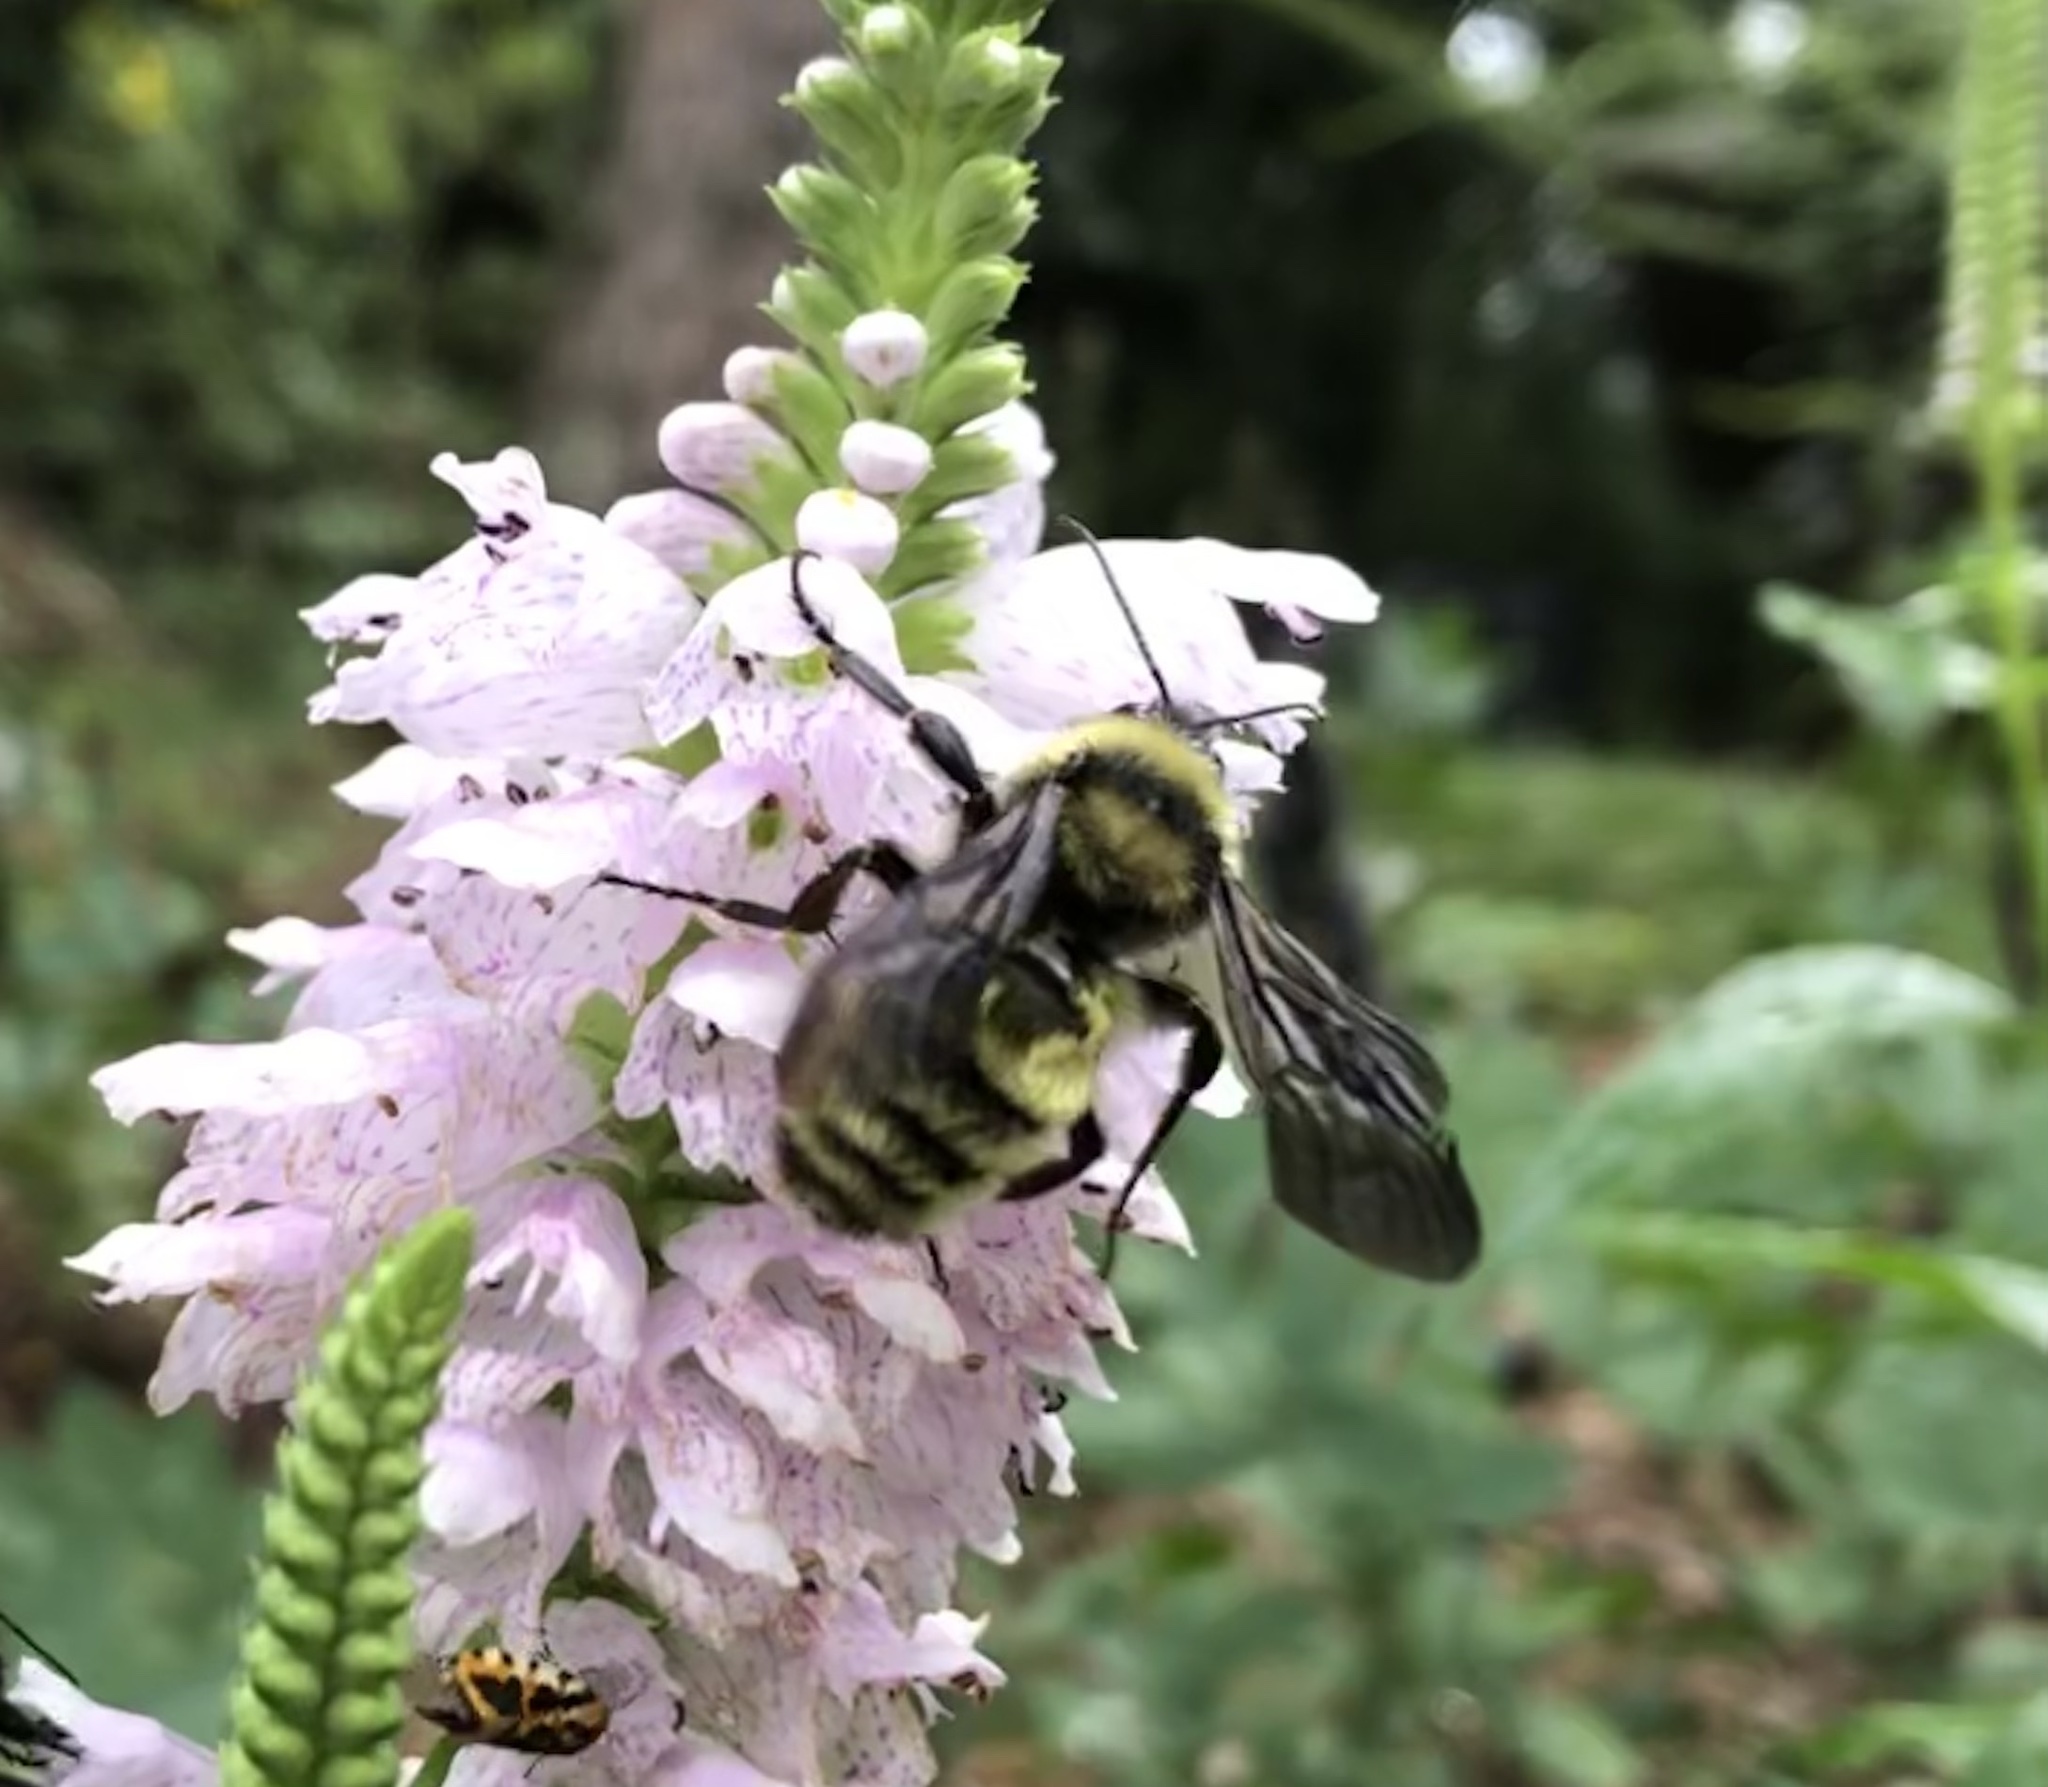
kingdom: Animalia
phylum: Arthropoda
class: Insecta
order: Hymenoptera
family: Apidae
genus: Bombus
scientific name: Bombus pensylvanicus
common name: Bumble bee
